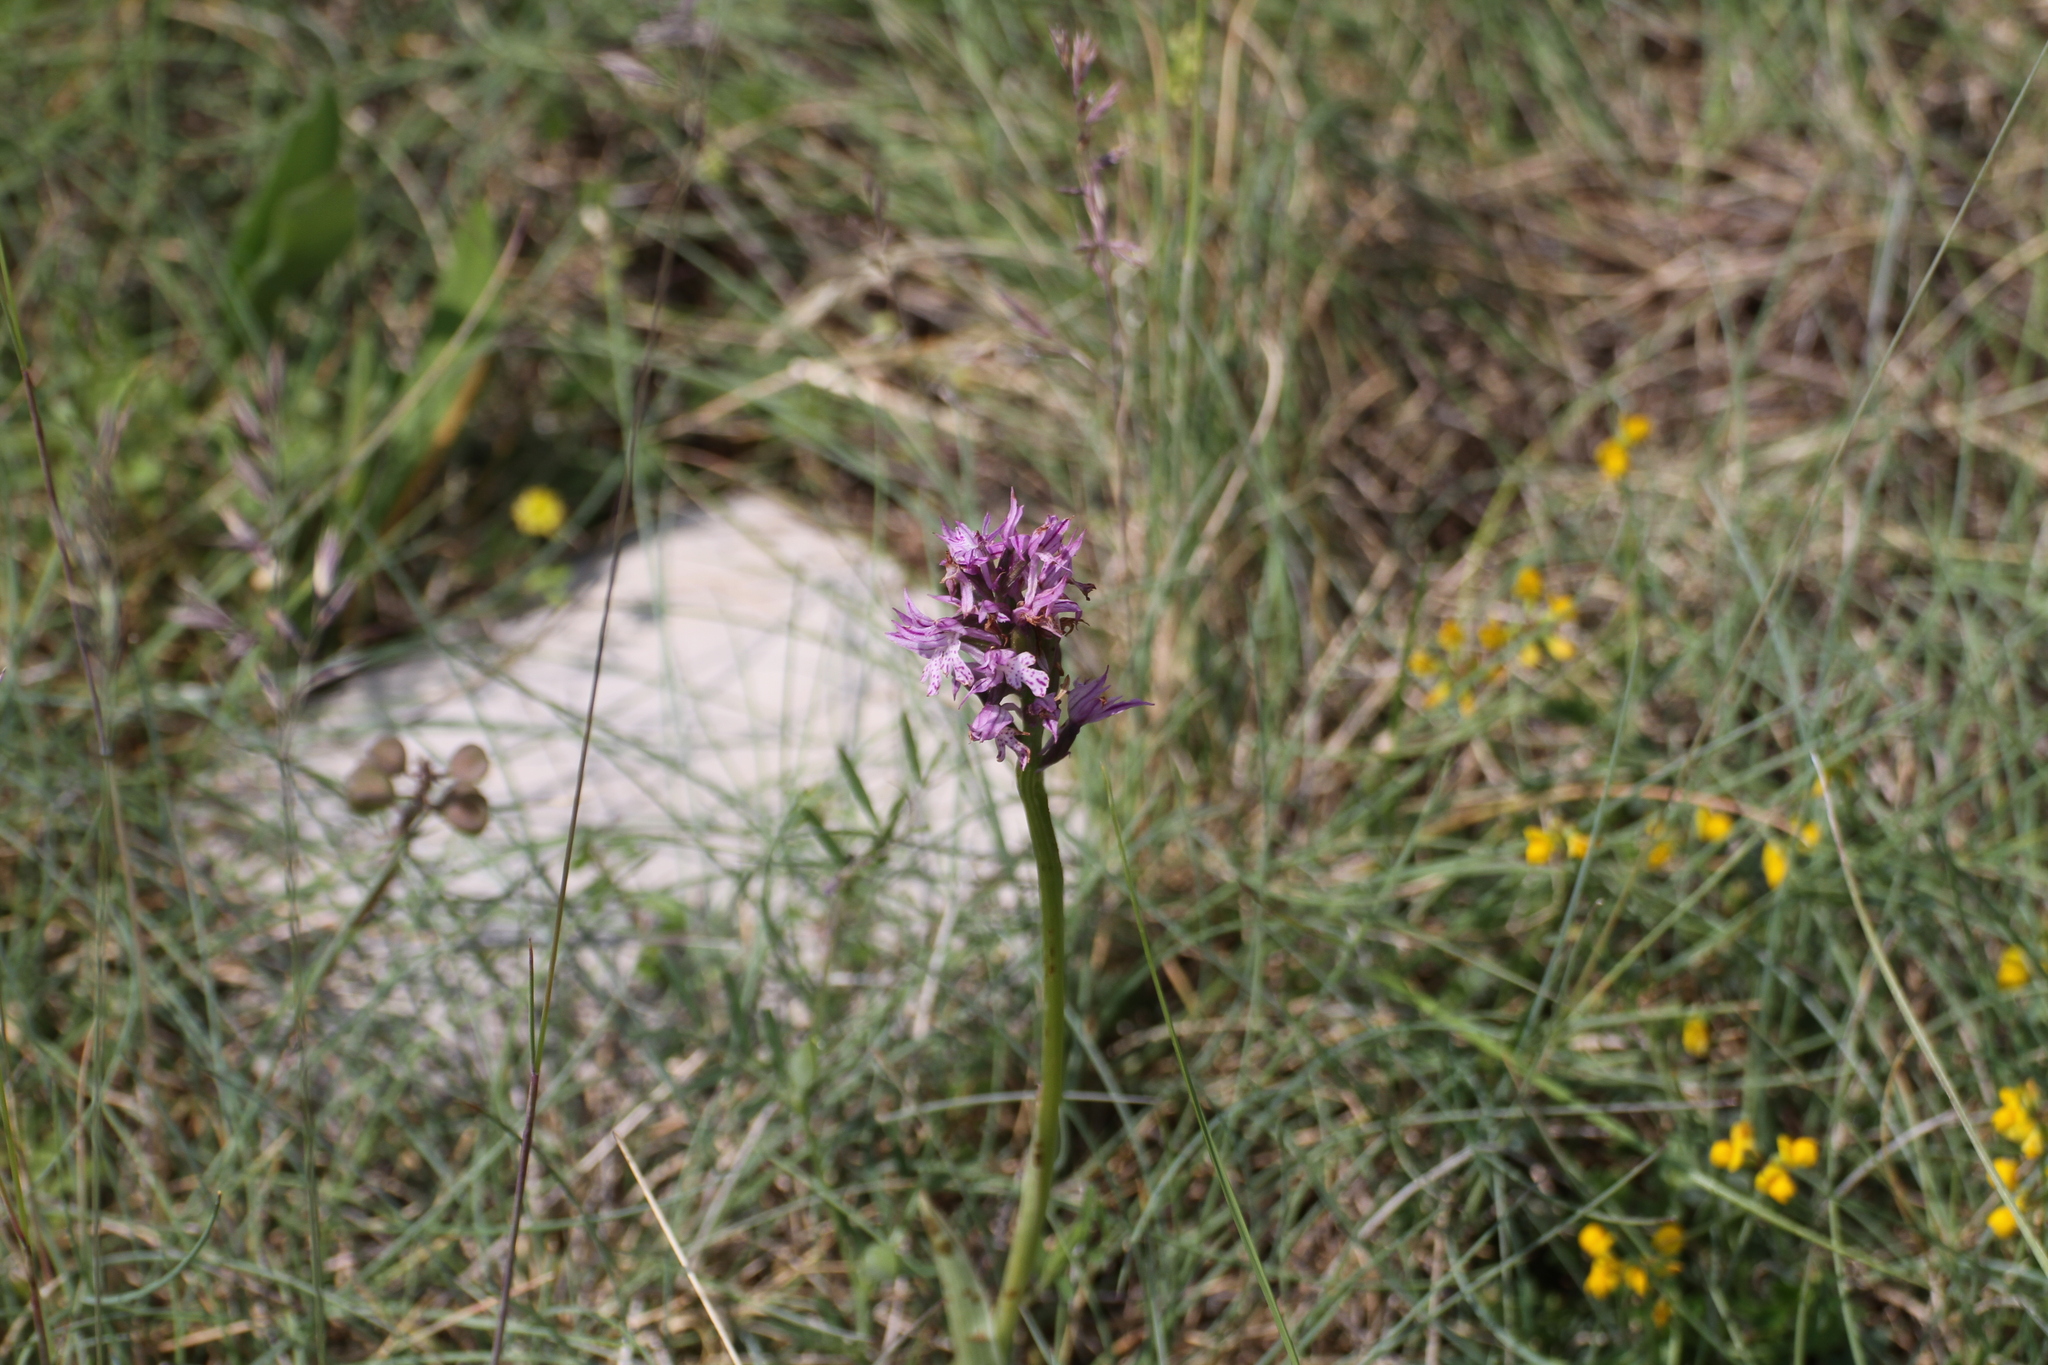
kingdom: Plantae
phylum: Tracheophyta
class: Liliopsida
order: Asparagales
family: Orchidaceae
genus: Neotinea
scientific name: Neotinea tridentata
